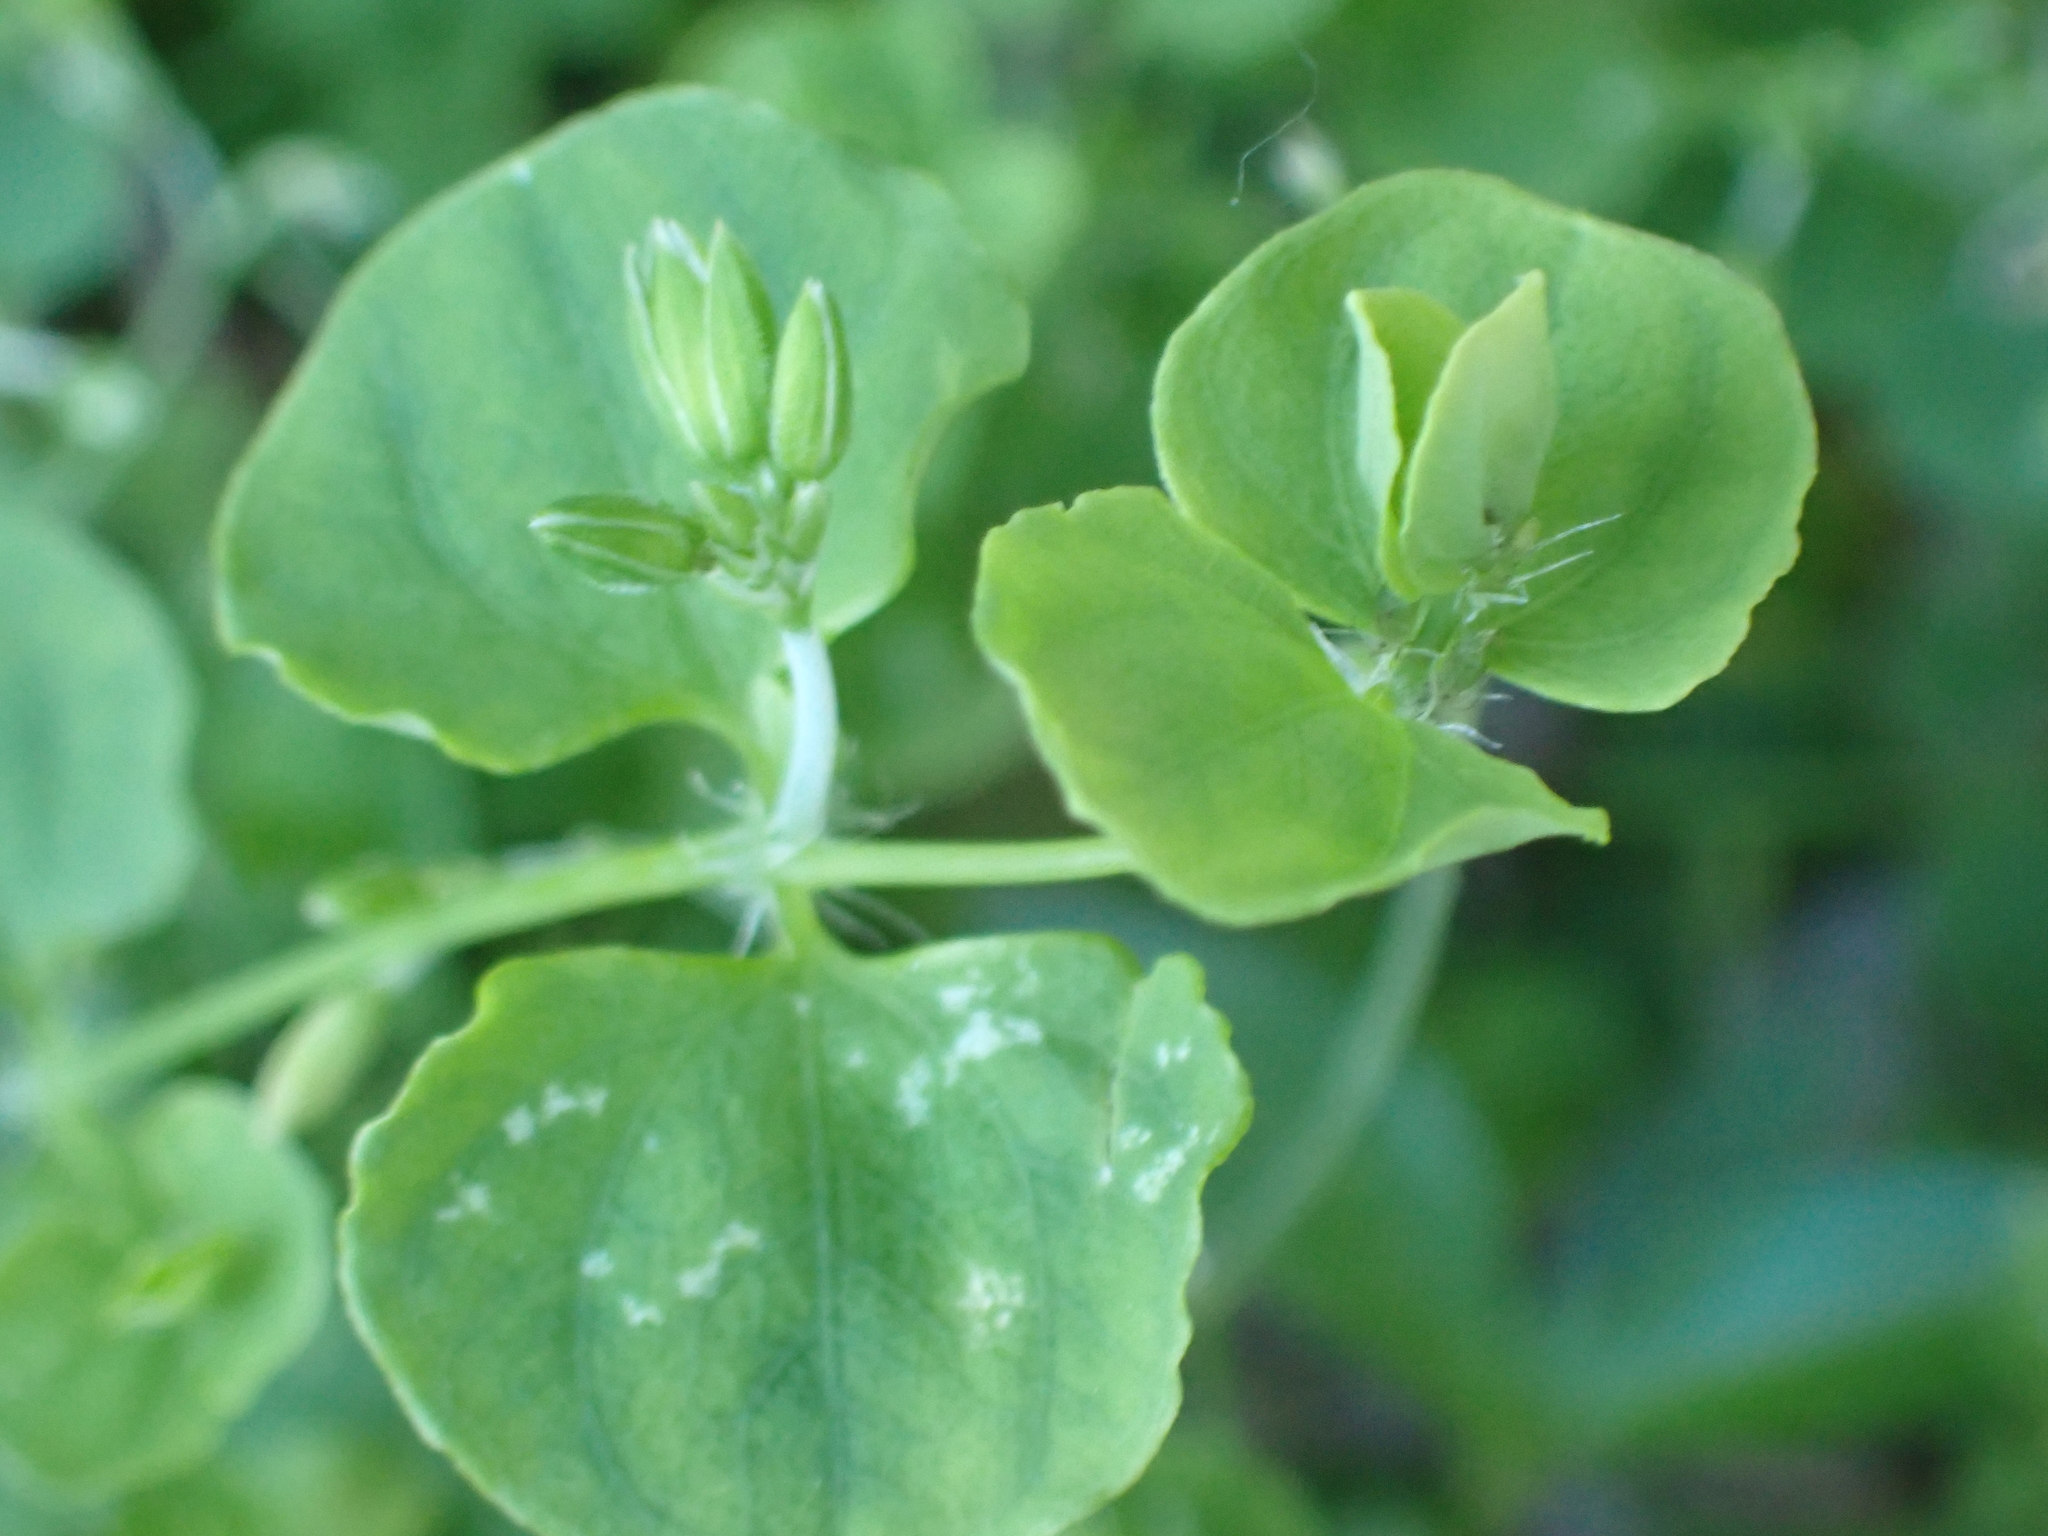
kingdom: Plantae
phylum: Tracheophyta
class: Magnoliopsida
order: Caryophyllales
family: Caryophyllaceae
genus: Drymaria
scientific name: Drymaria cordata
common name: Whitesnow
